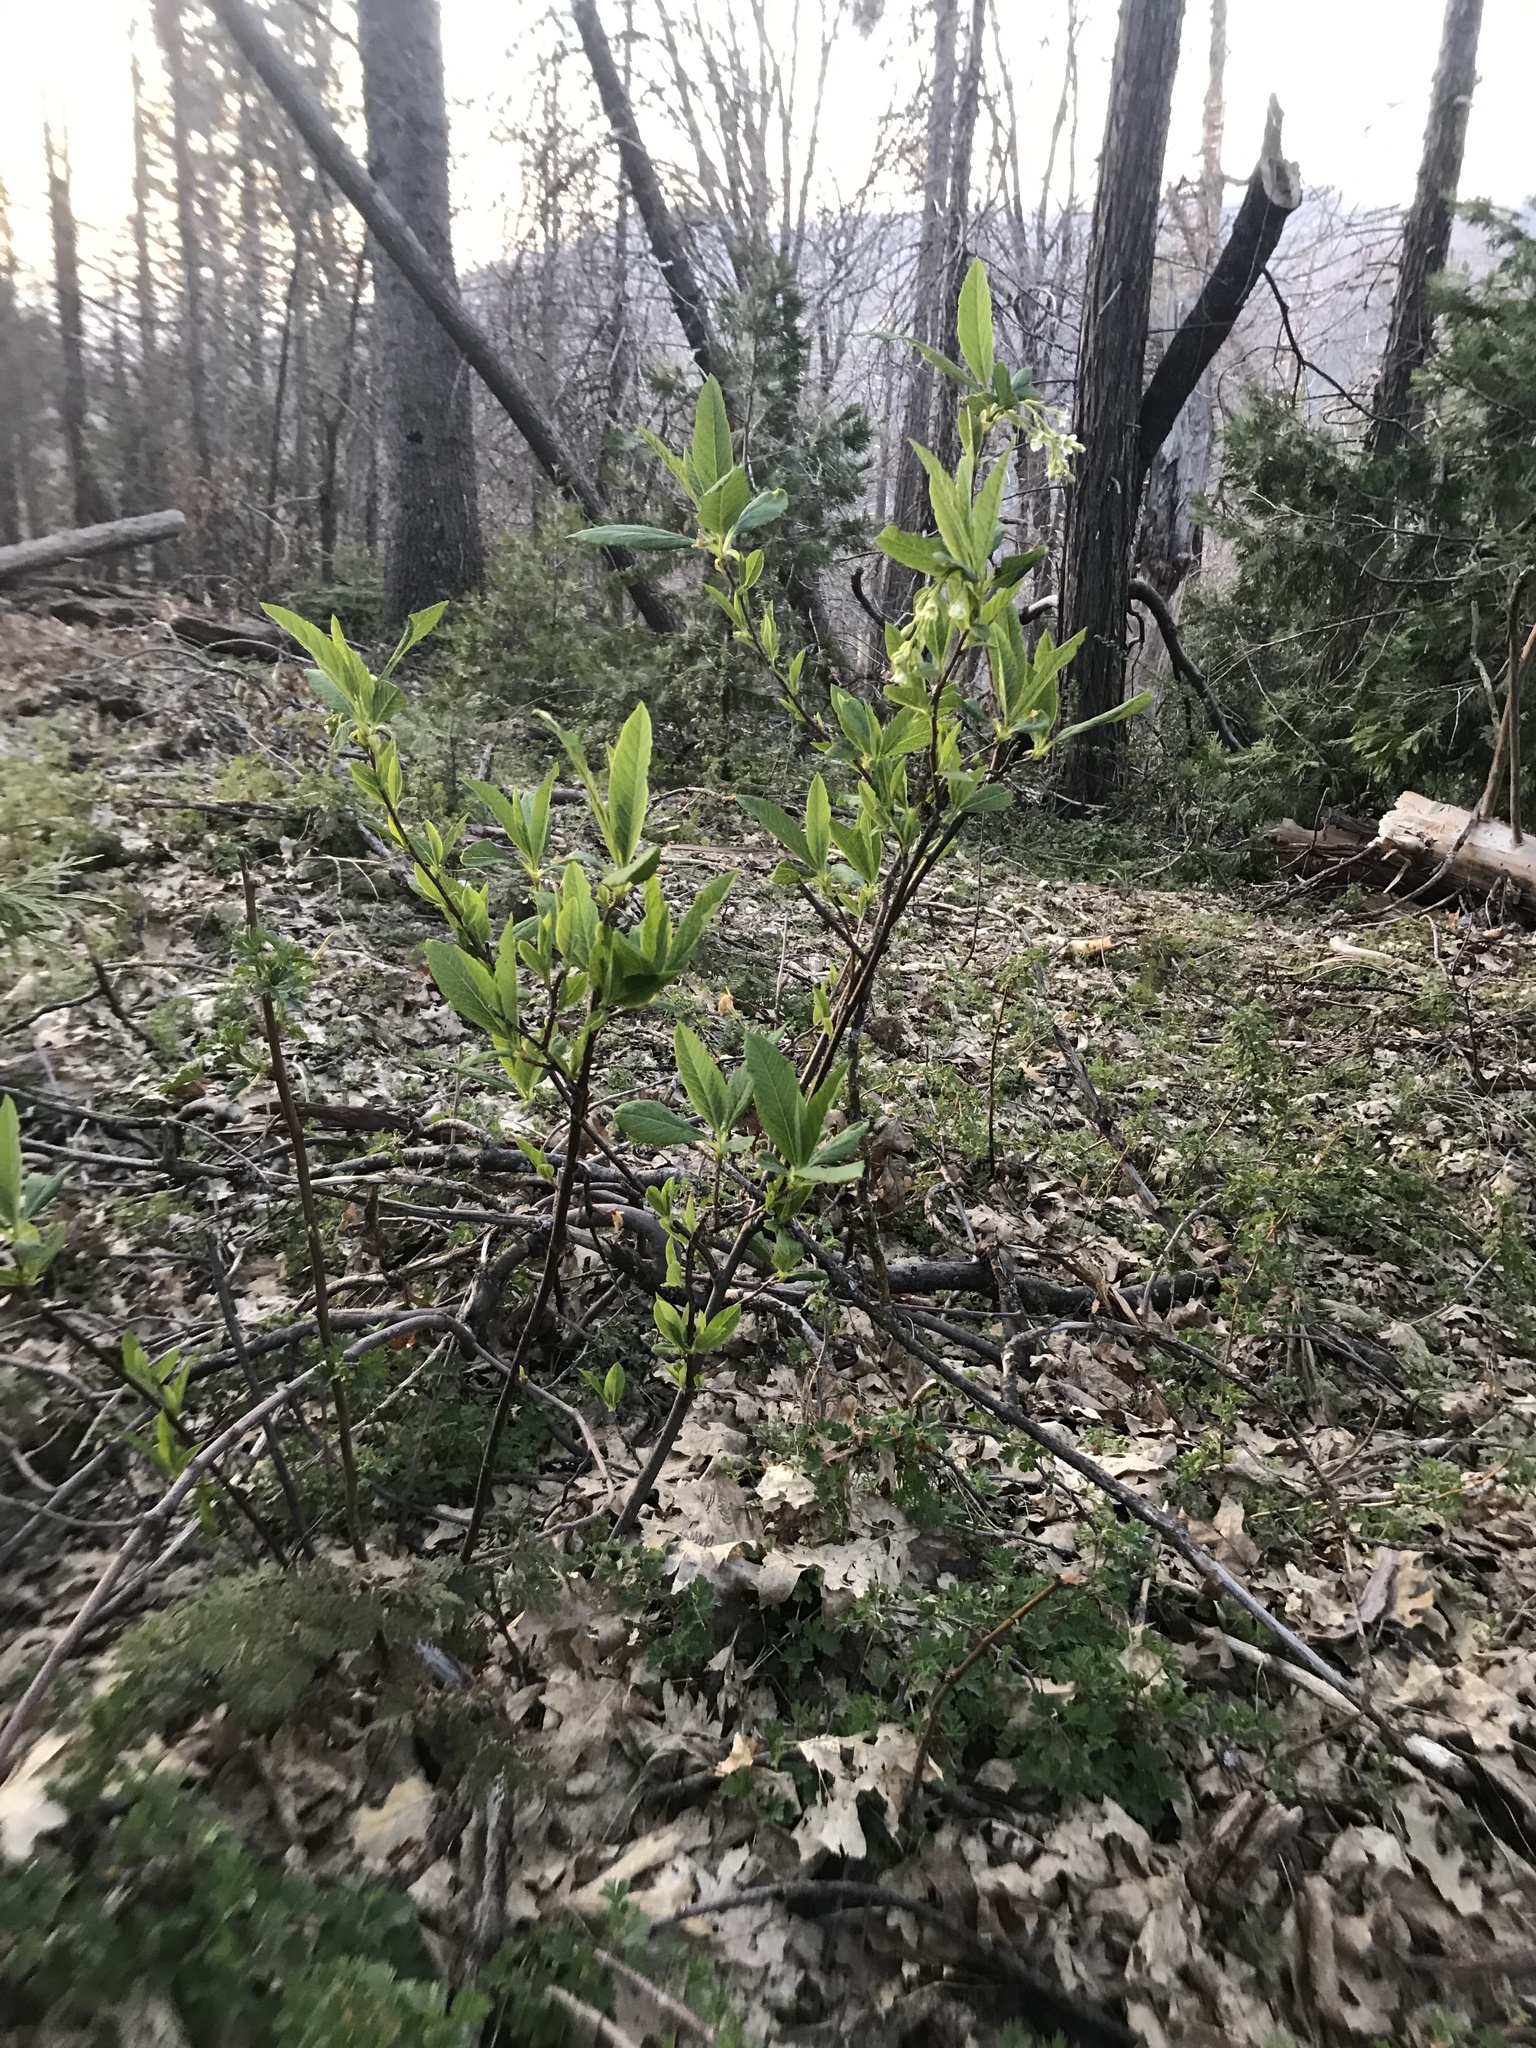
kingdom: Plantae
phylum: Tracheophyta
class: Magnoliopsida
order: Rosales
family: Rosaceae
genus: Oemleria
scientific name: Oemleria cerasiformis
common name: Osoberry
